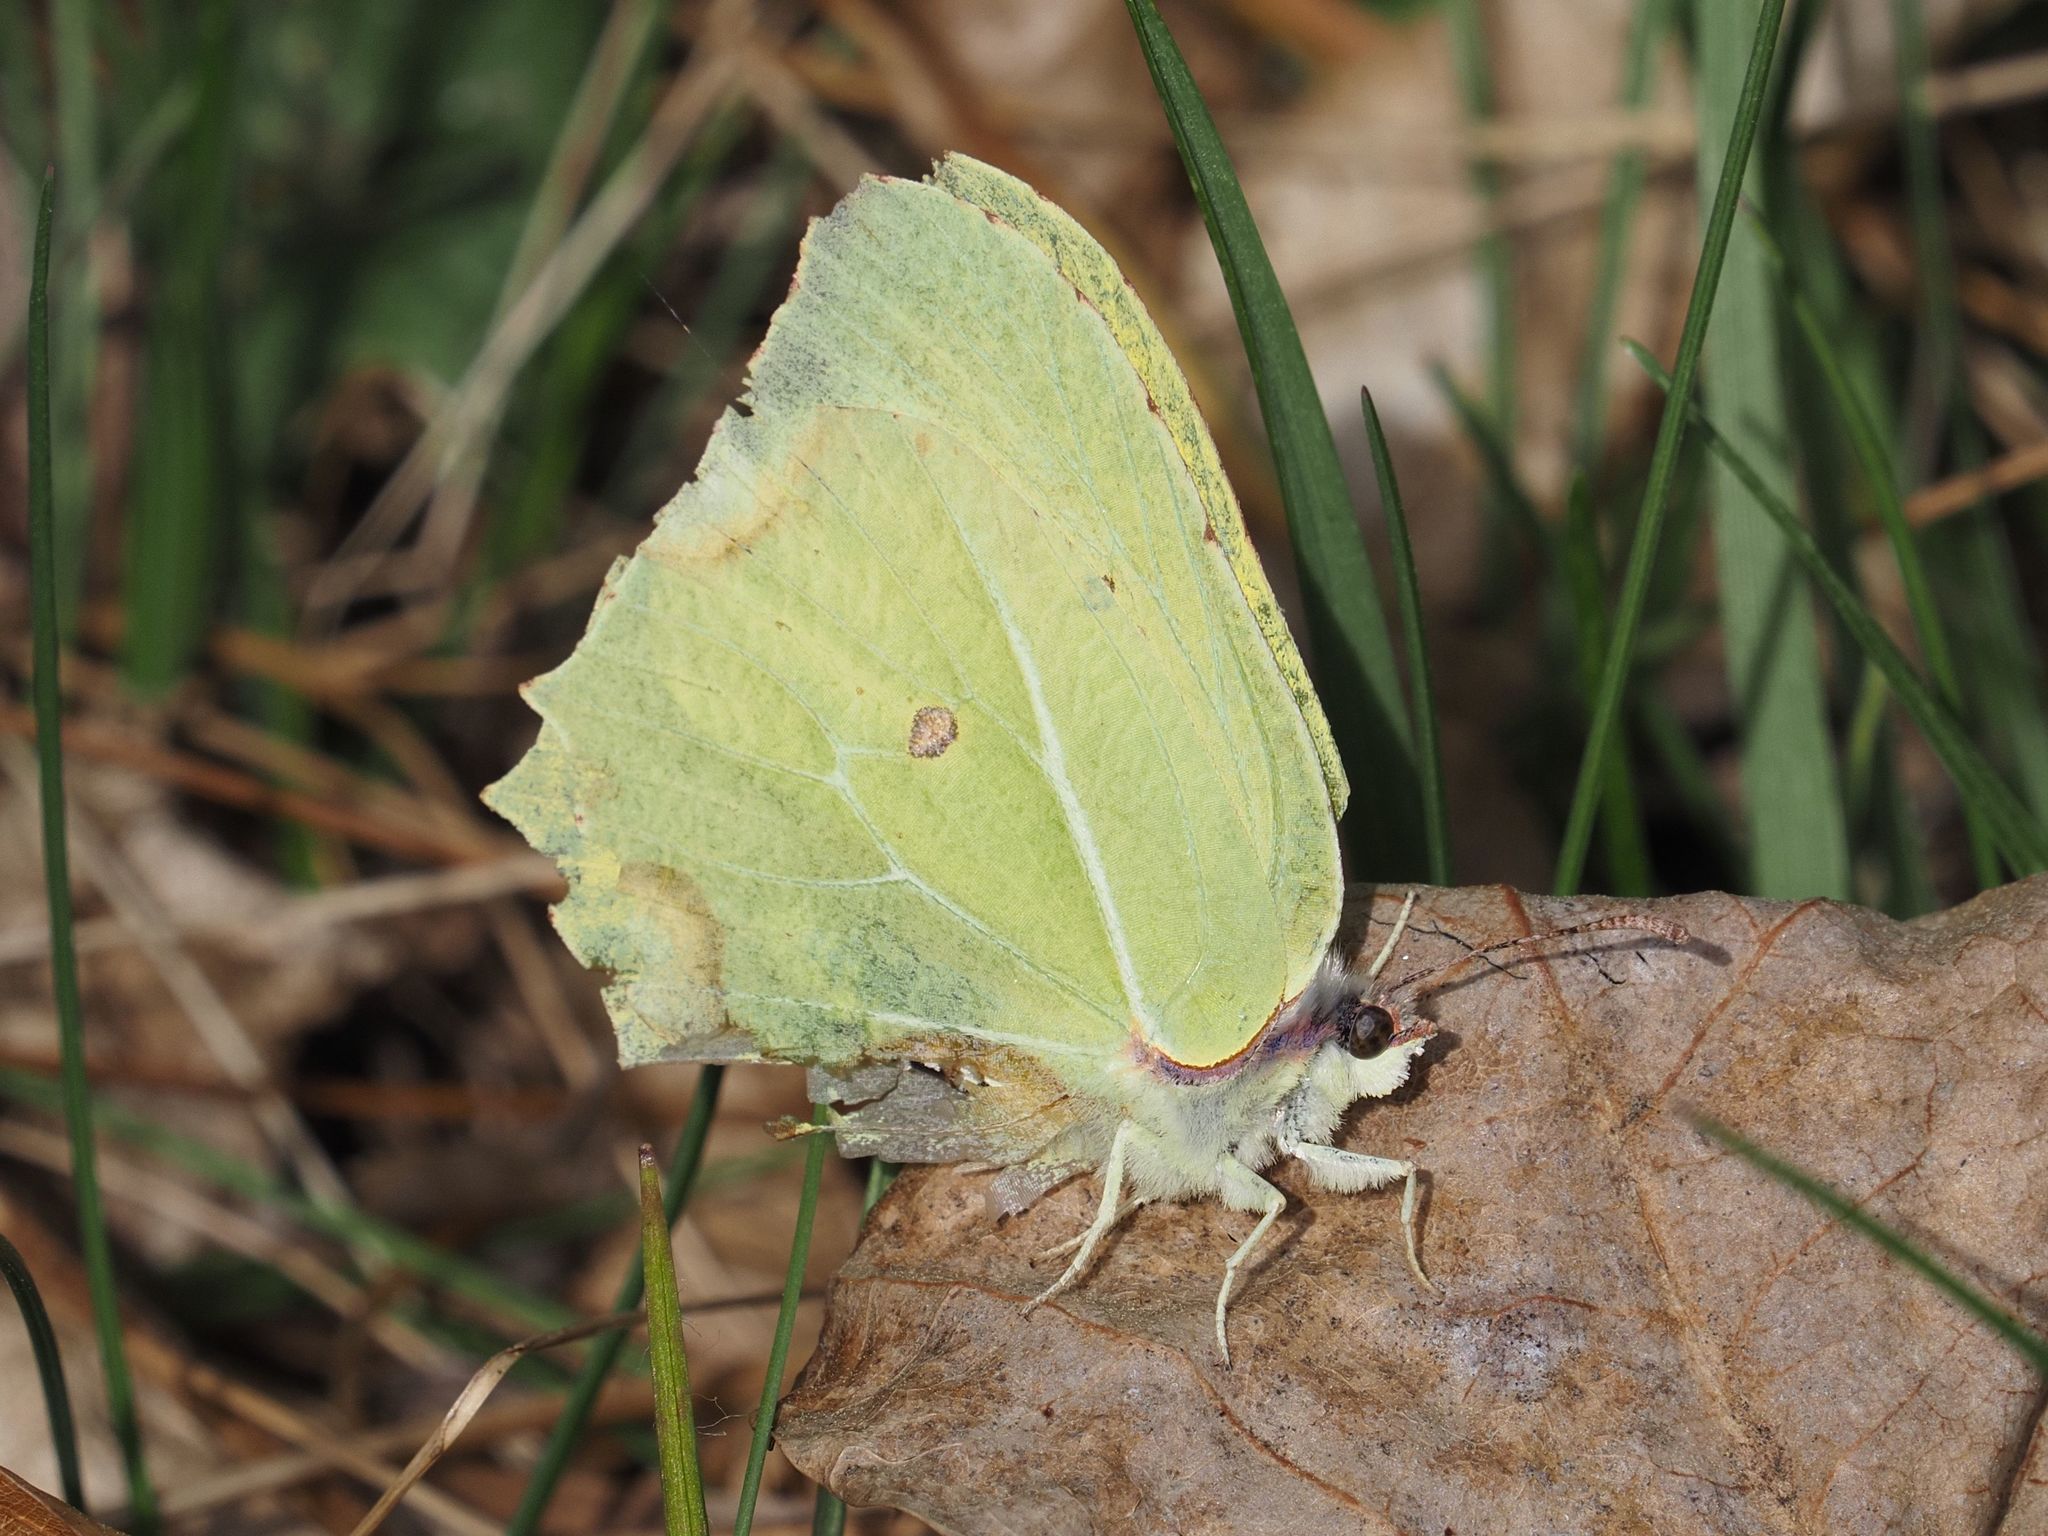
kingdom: Animalia
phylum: Arthropoda
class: Insecta
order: Lepidoptera
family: Pieridae
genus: Gonepteryx
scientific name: Gonepteryx rhamni
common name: Brimstone
